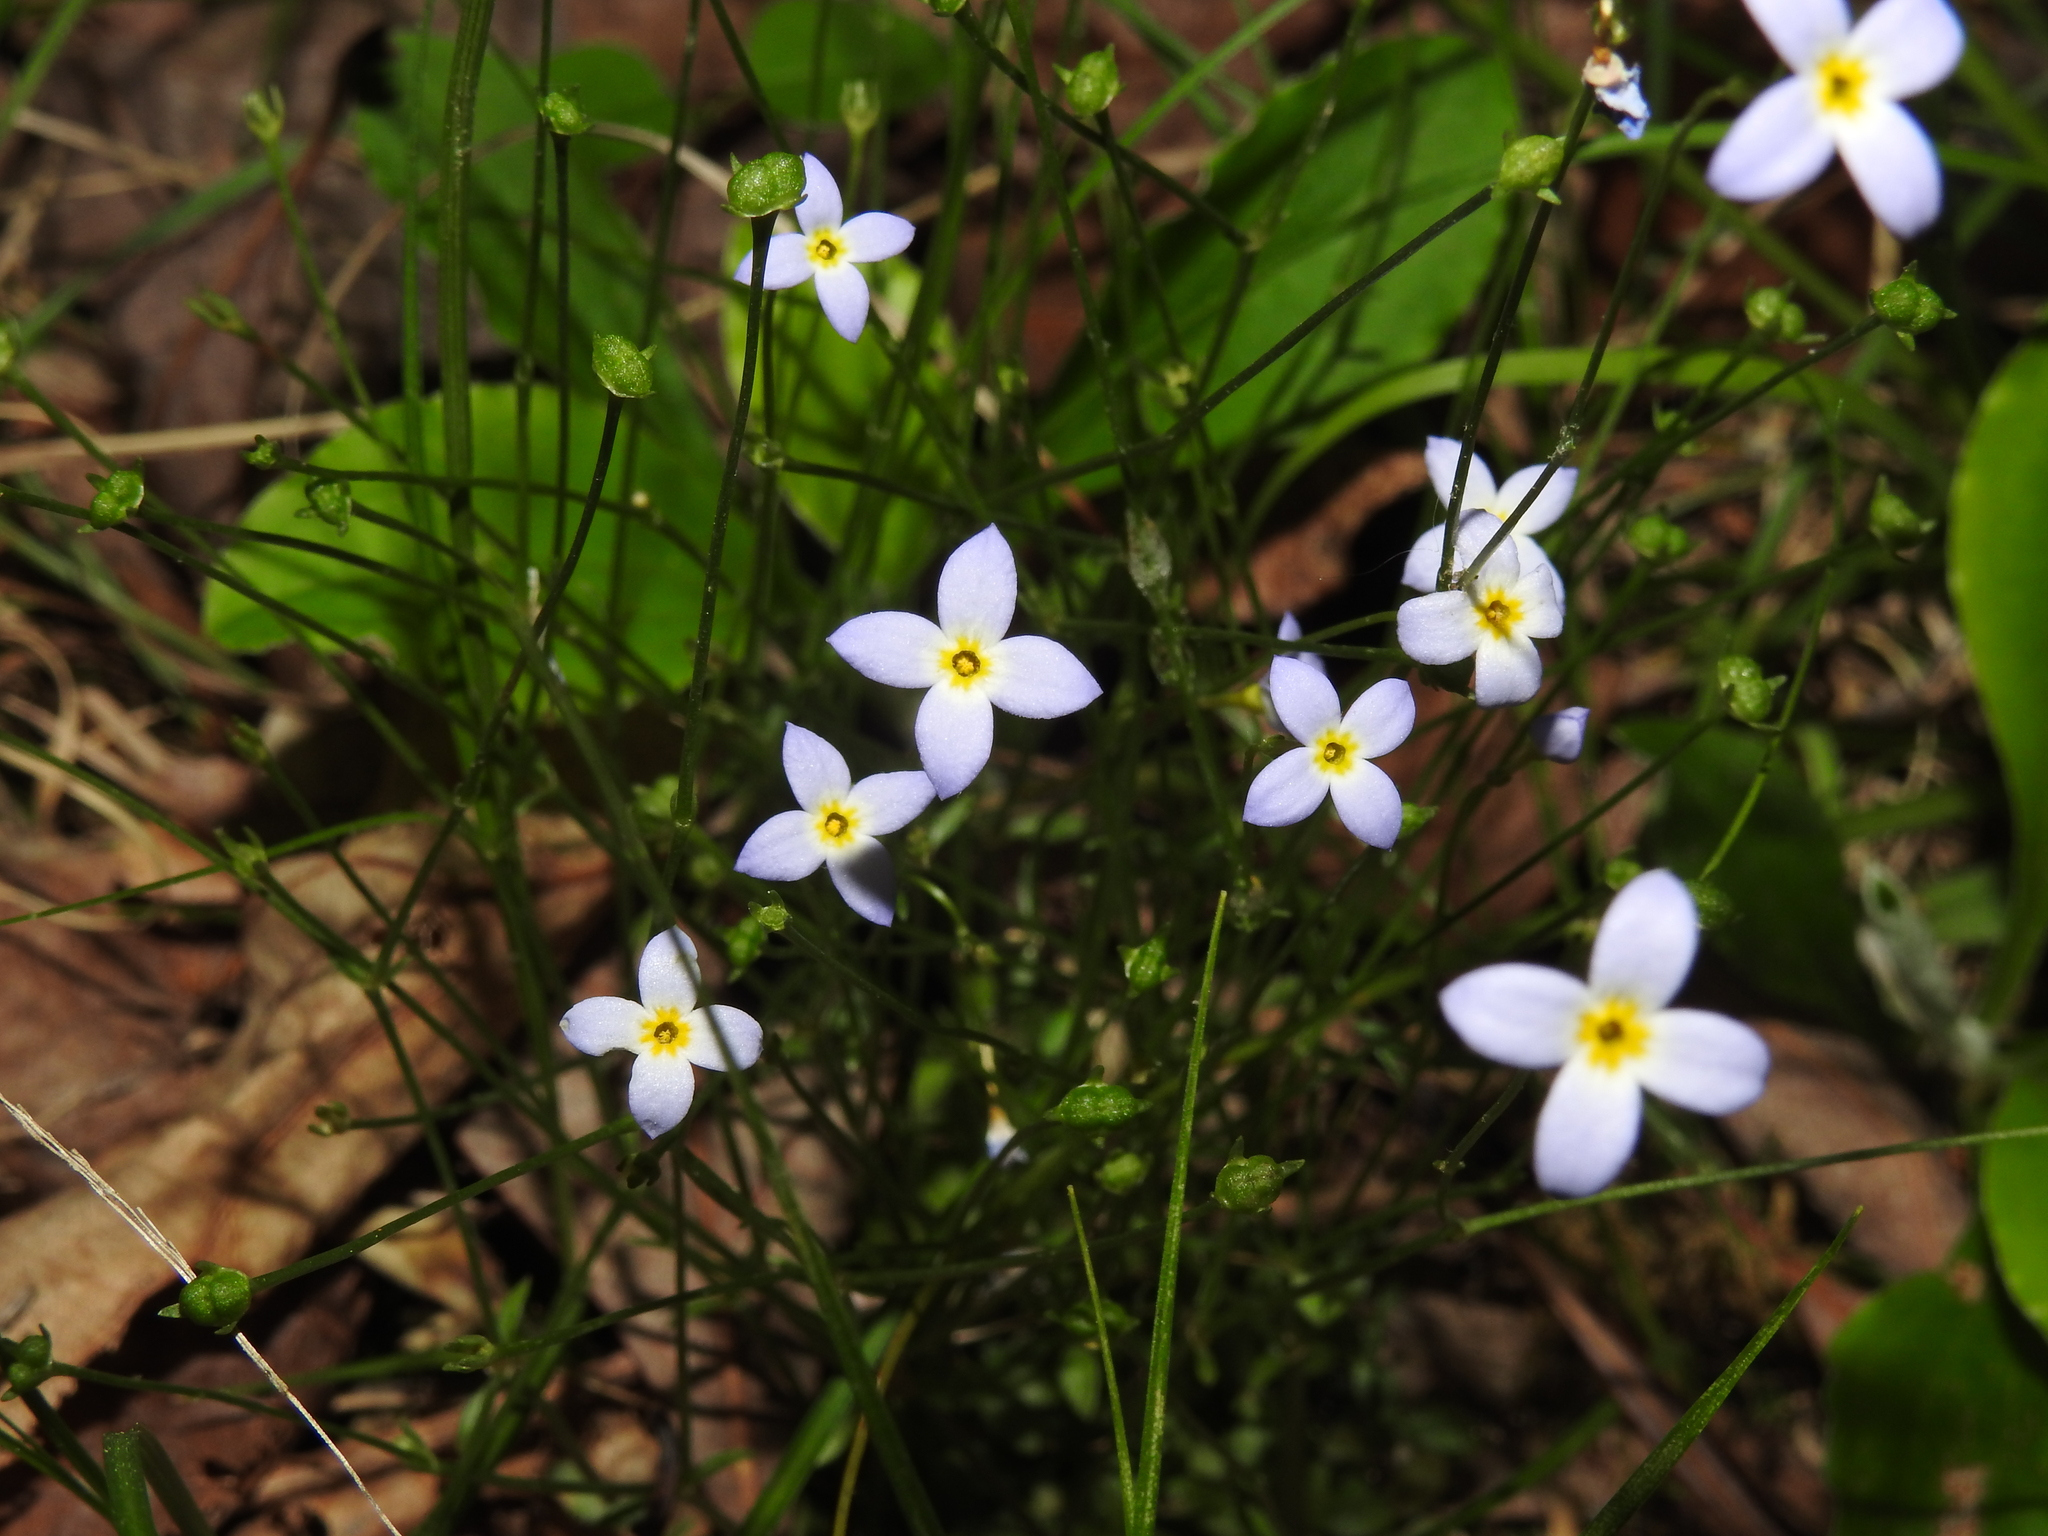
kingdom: Plantae
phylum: Tracheophyta
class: Magnoliopsida
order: Gentianales
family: Rubiaceae
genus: Houstonia
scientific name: Houstonia caerulea
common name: Bluets
